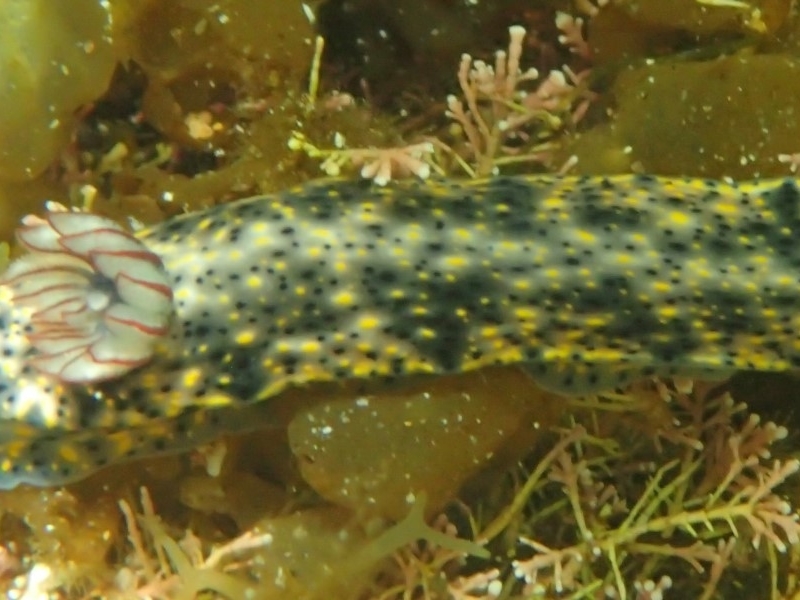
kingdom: Animalia
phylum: Mollusca
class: Gastropoda
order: Nudibranchia
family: Chromodorididae
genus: Hypselodoris
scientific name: Hypselodoris obscura
